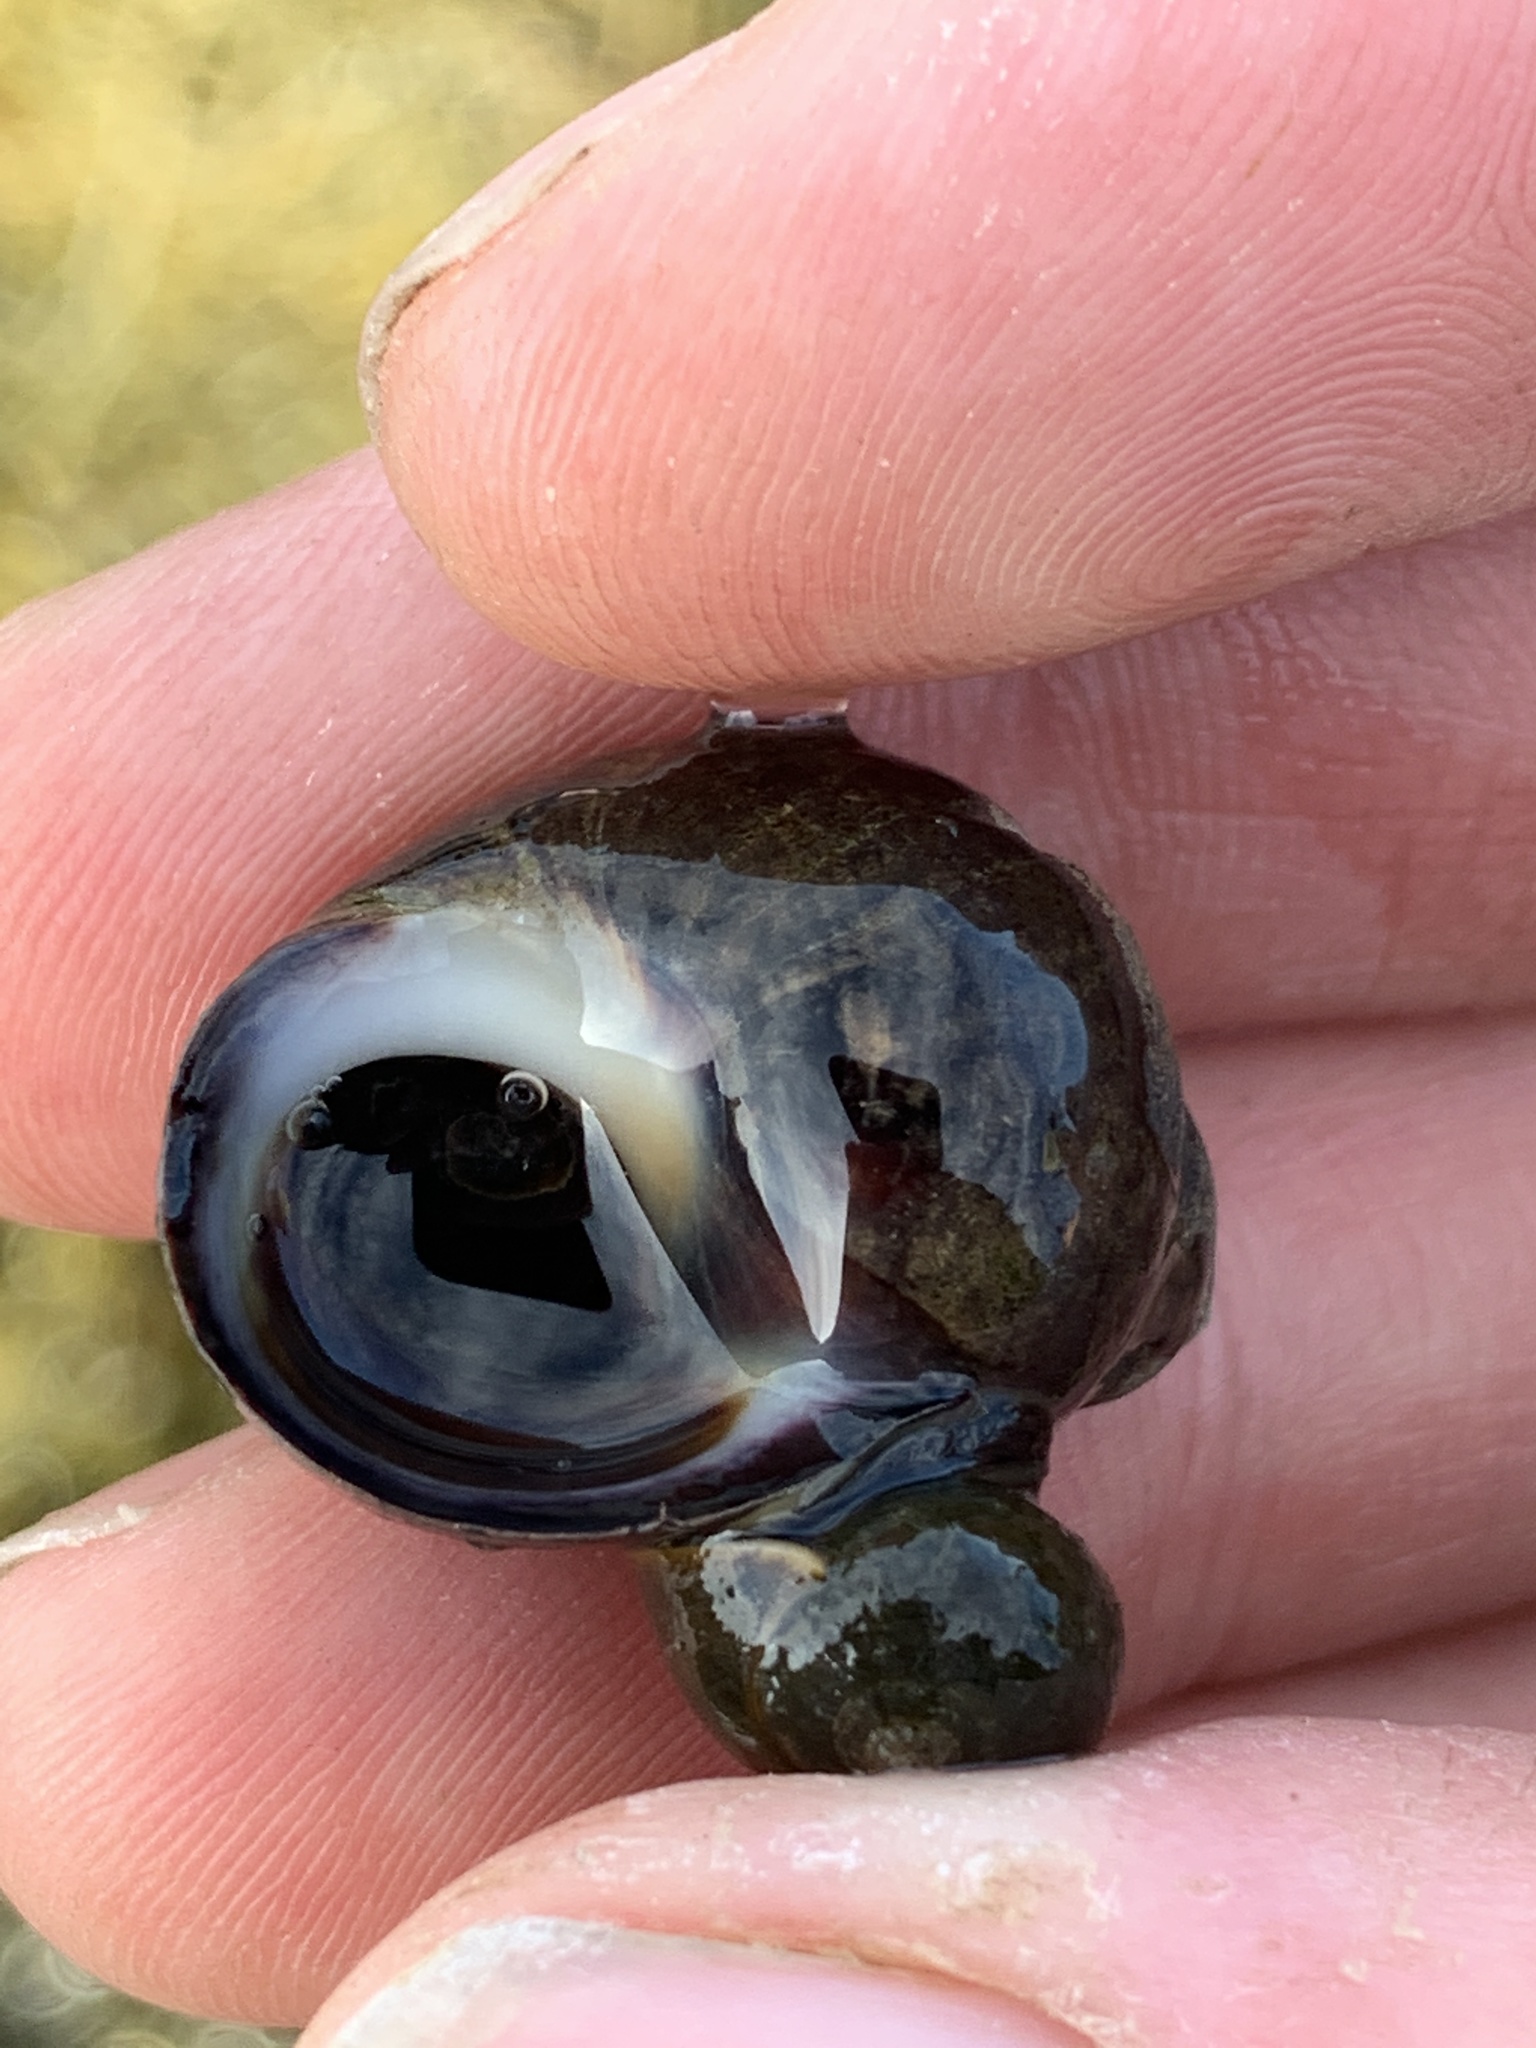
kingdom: Animalia
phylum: Mollusca
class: Gastropoda
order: Littorinimorpha
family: Littorinidae
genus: Littorina
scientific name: Littorina littorea
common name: Common periwinkle
